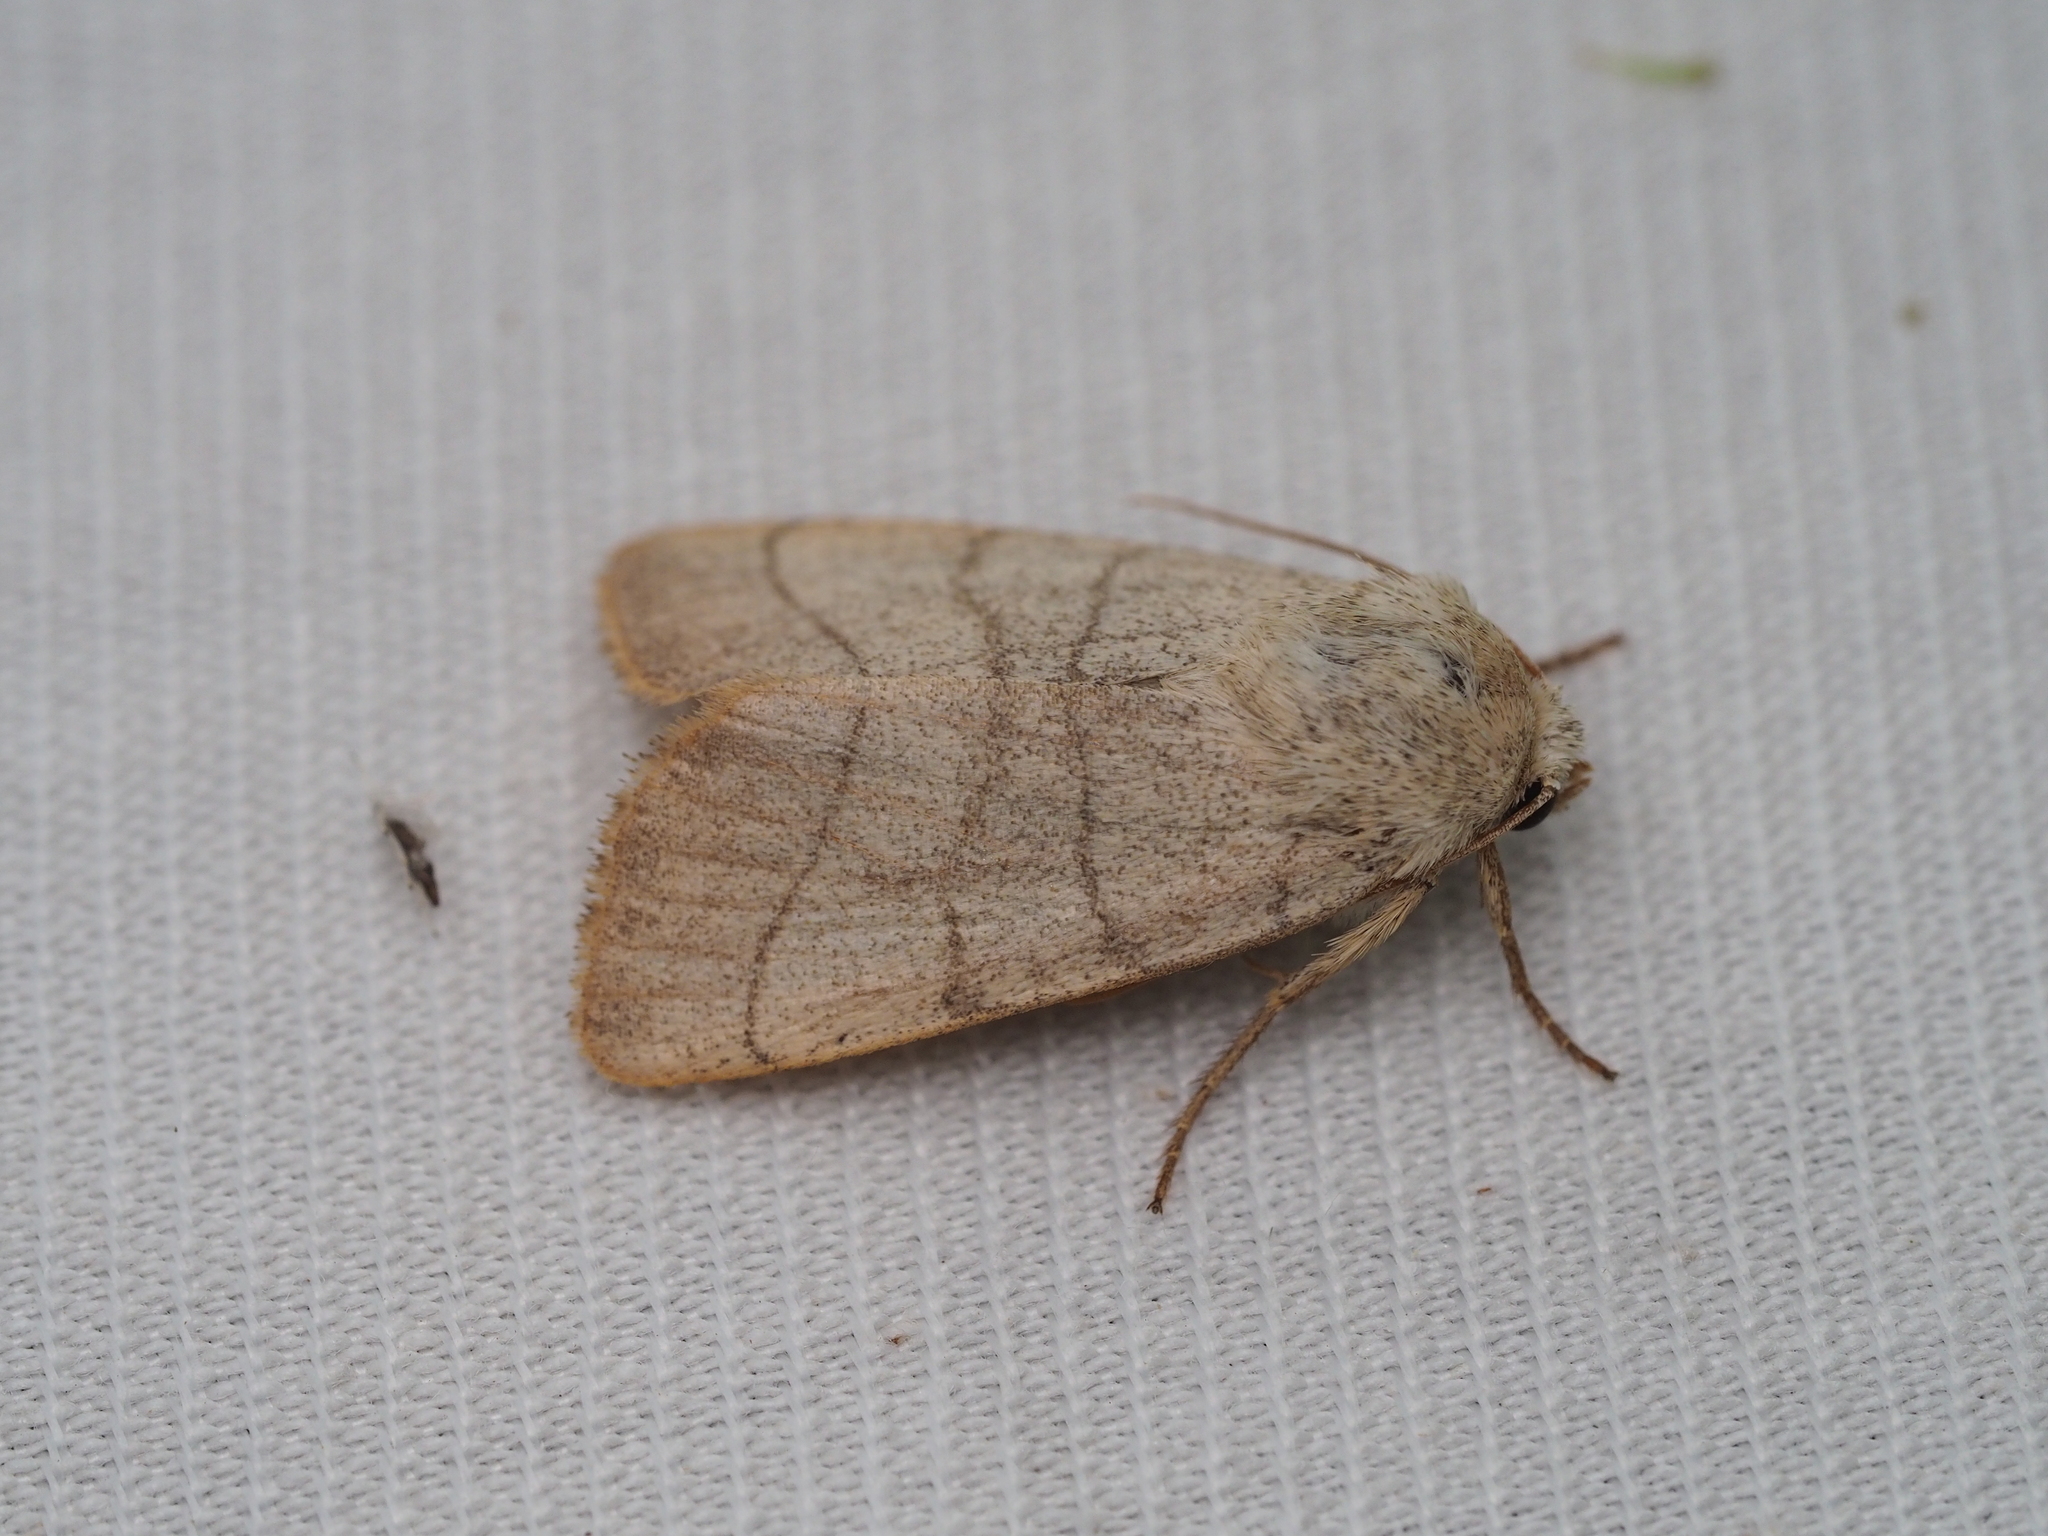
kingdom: Animalia
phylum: Arthropoda
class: Insecta
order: Lepidoptera
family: Noctuidae
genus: Charanyca
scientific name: Charanyca trigrammica
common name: Treble lines
